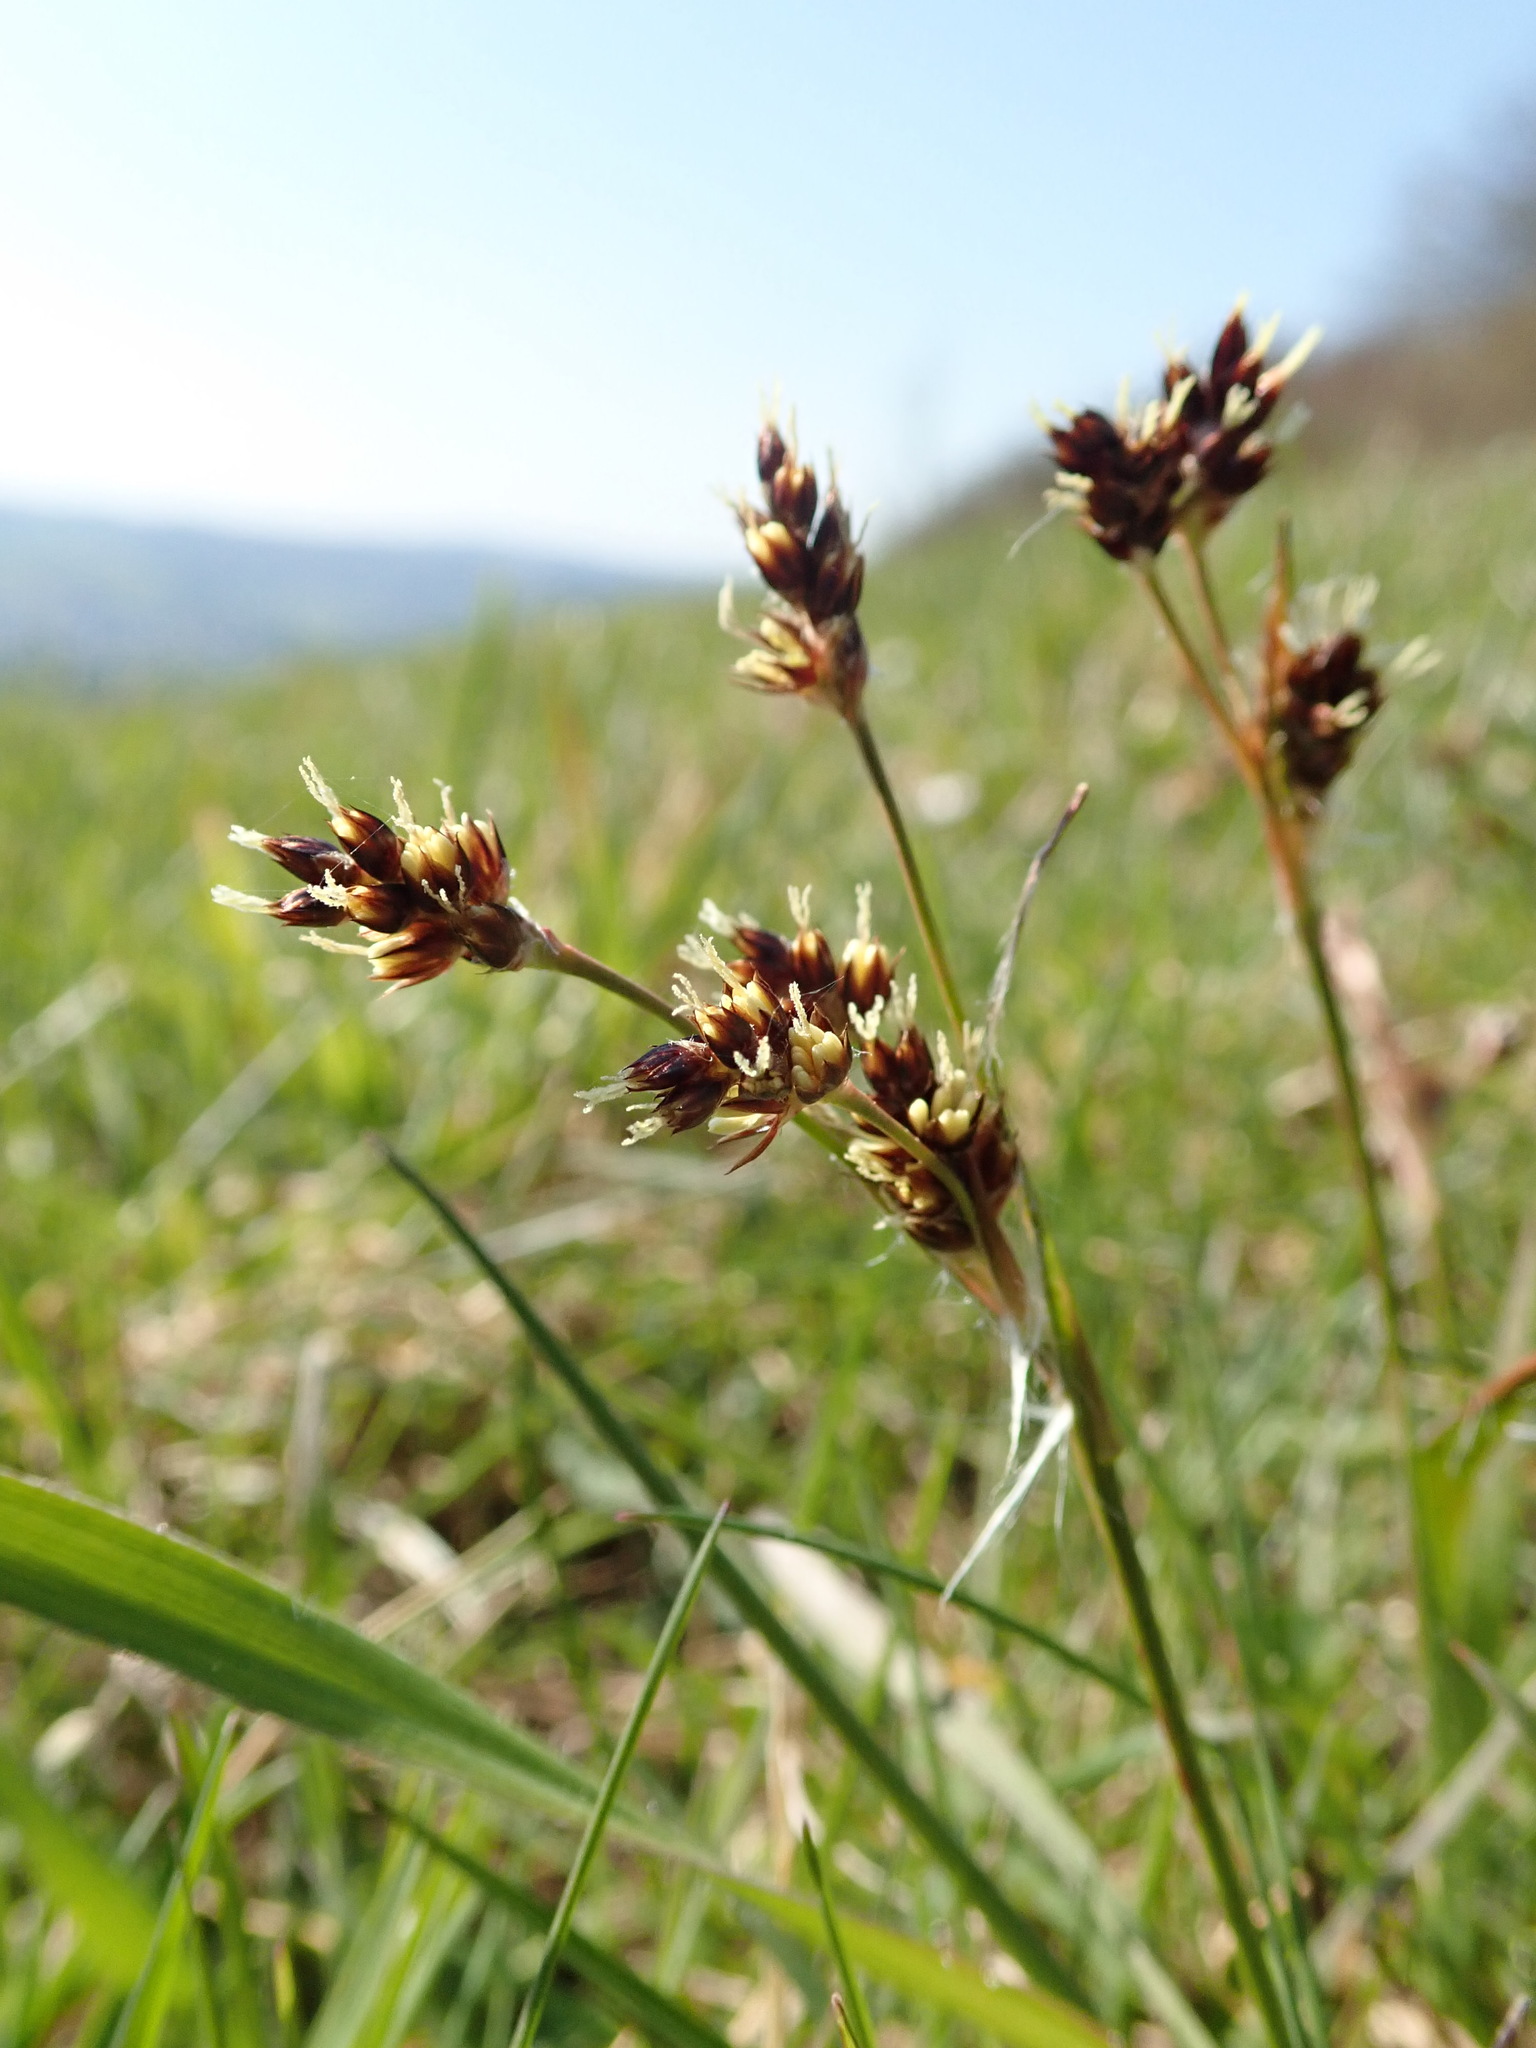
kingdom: Plantae
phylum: Tracheophyta
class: Liliopsida
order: Poales
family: Juncaceae
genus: Luzula
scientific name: Luzula campestris
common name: Field wood-rush
